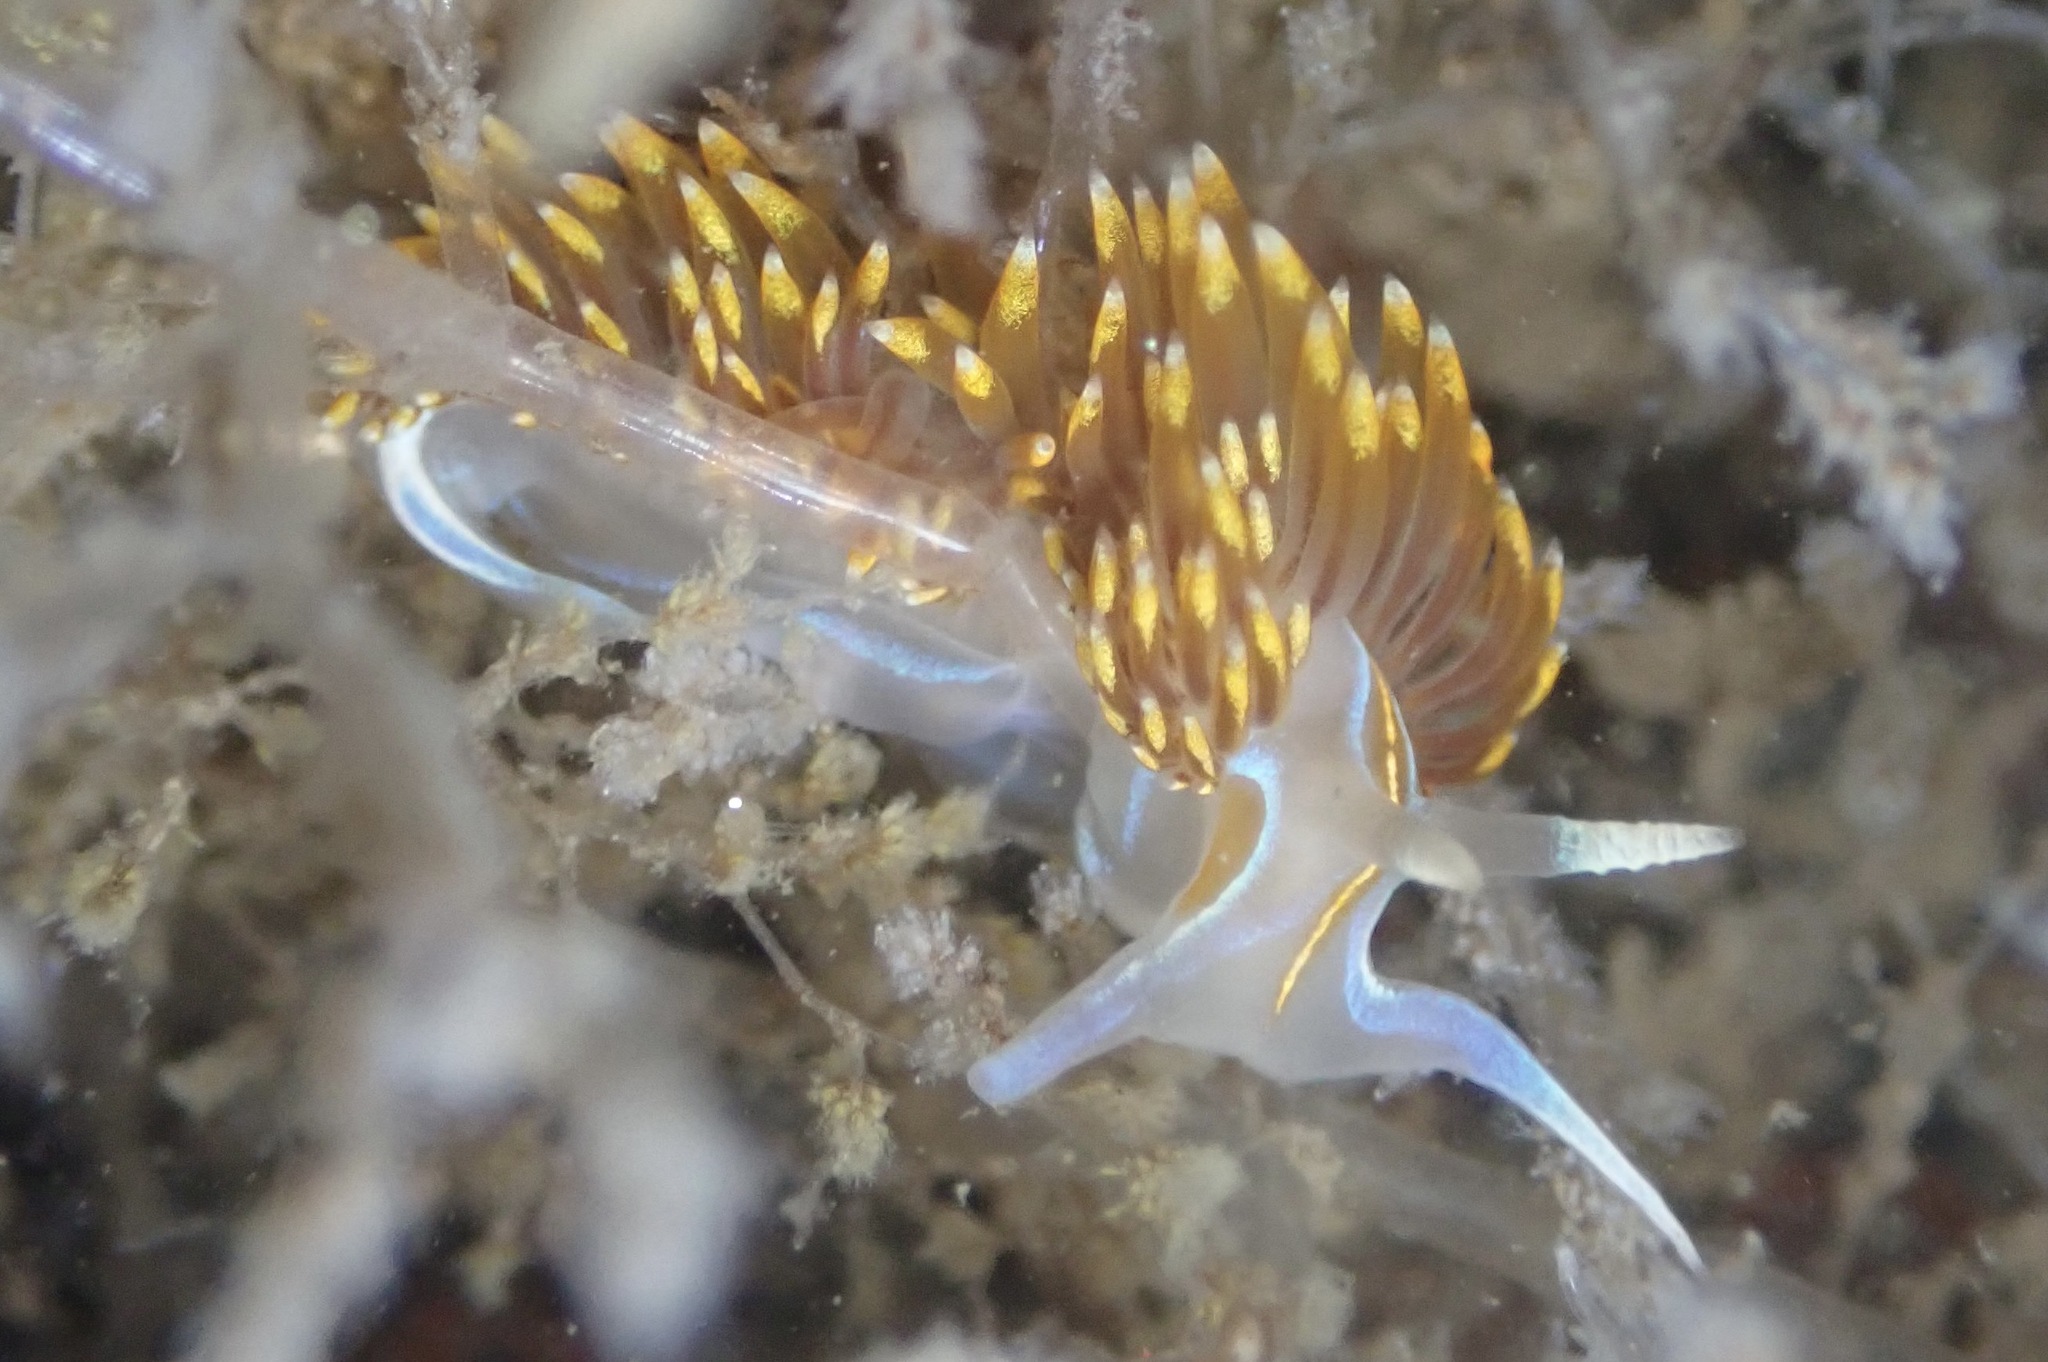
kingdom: Animalia
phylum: Mollusca
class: Gastropoda
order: Nudibranchia
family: Myrrhinidae
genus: Hermissenda
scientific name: Hermissenda opalescens
